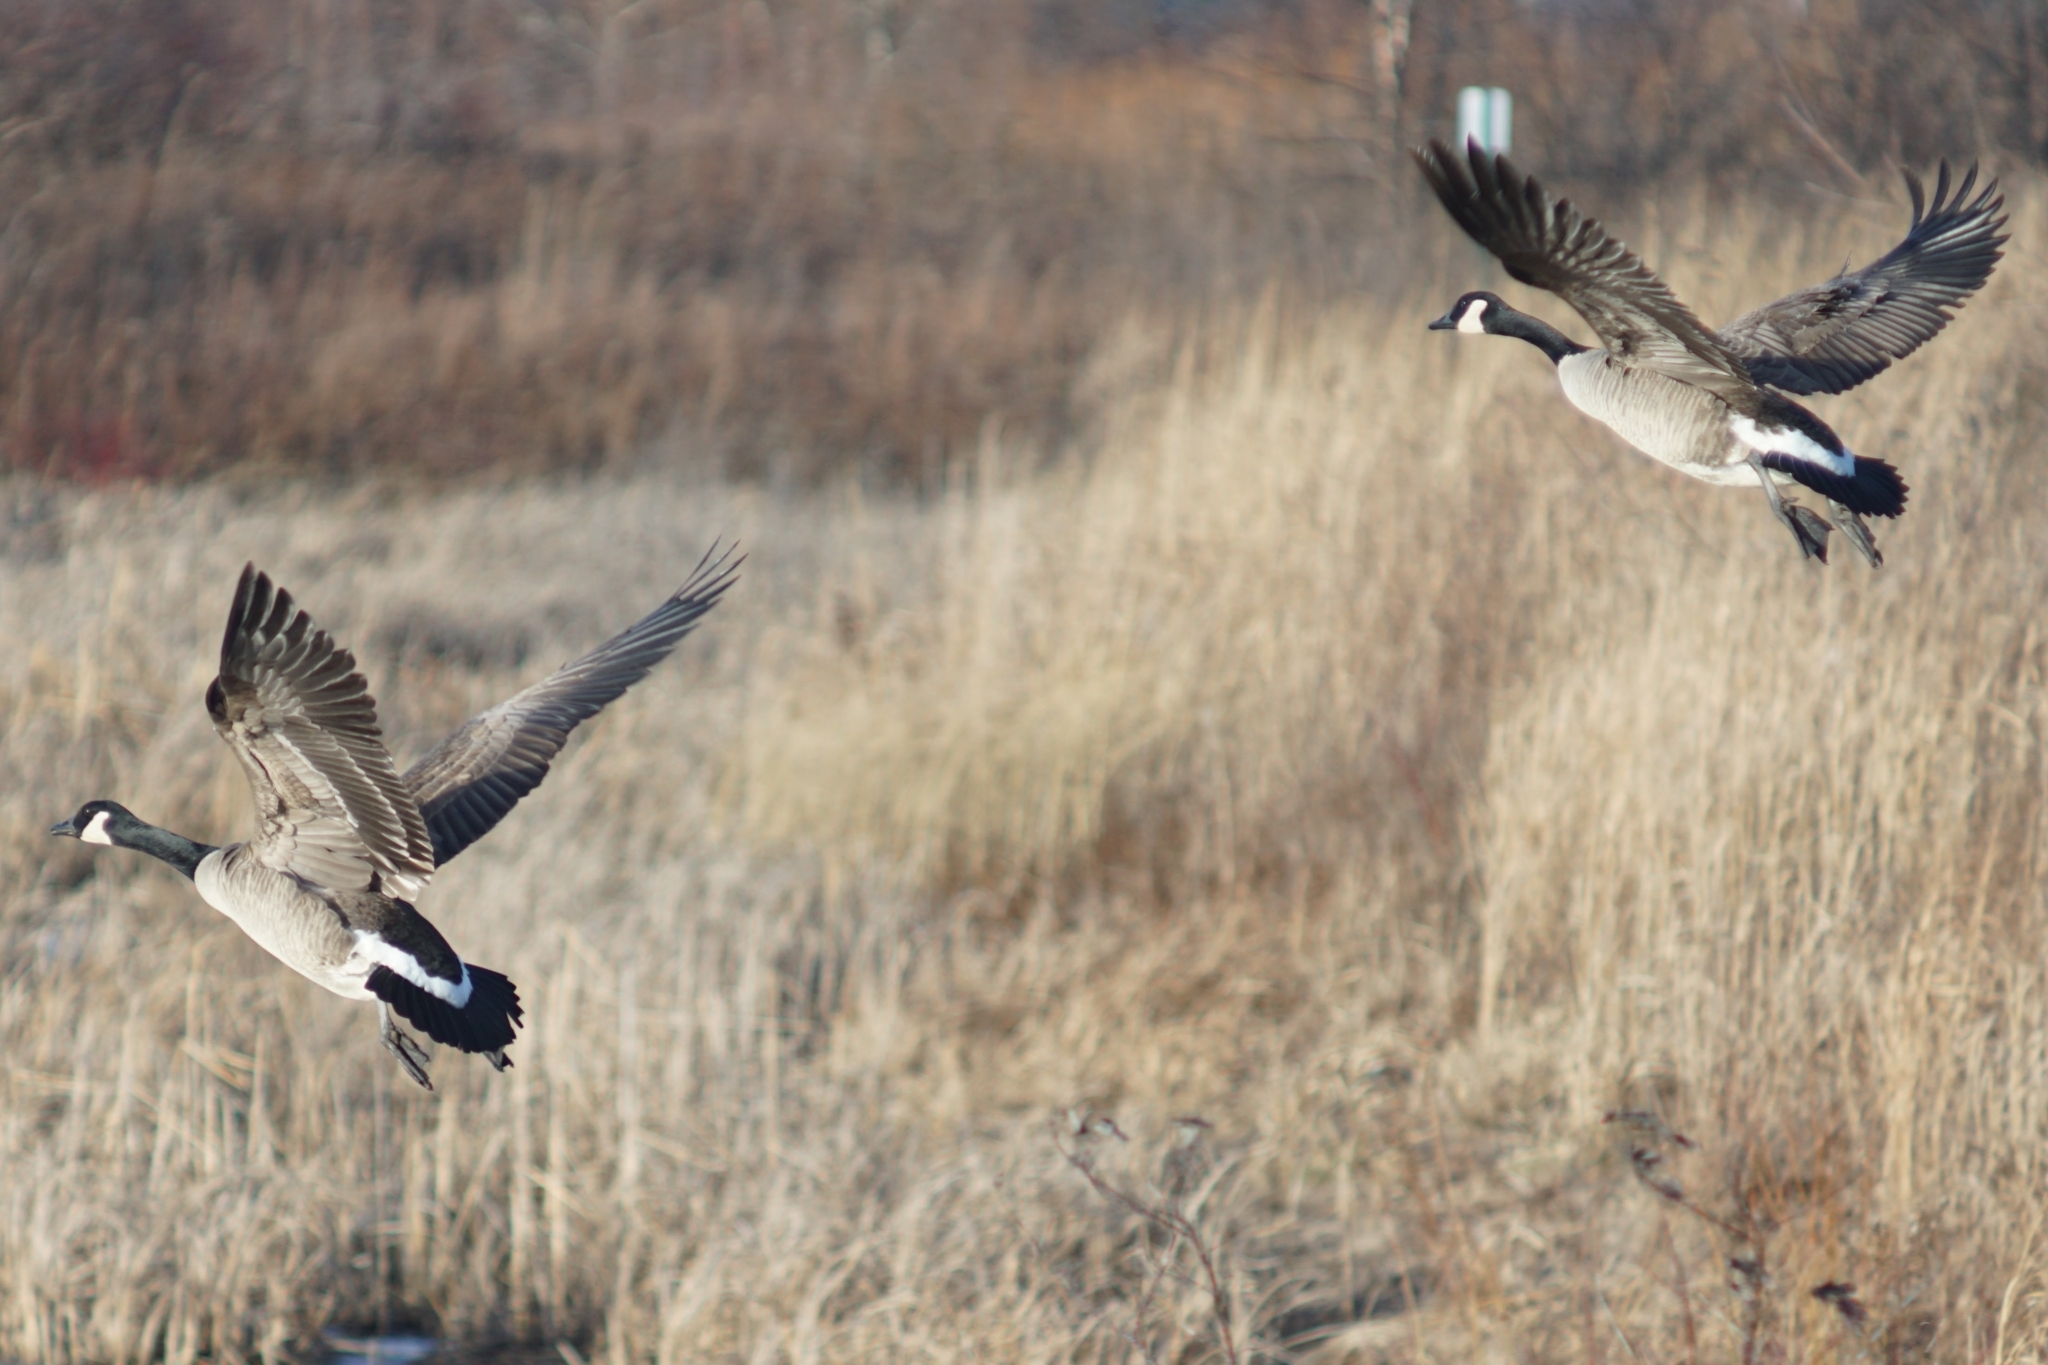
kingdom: Animalia
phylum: Chordata
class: Aves
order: Anseriformes
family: Anatidae
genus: Branta
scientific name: Branta canadensis
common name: Canada goose
